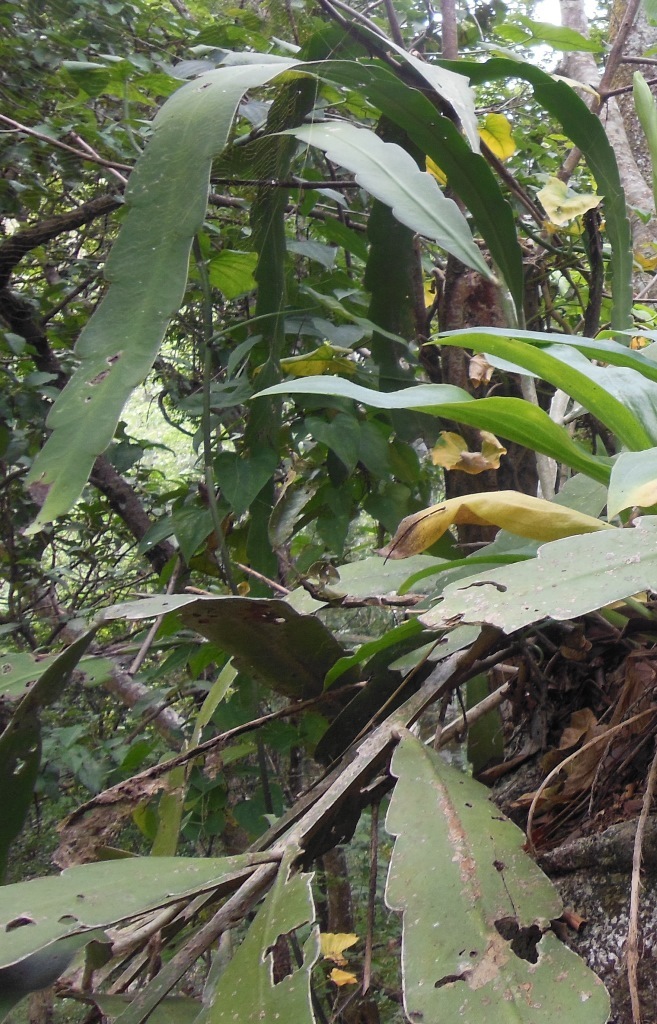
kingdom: Plantae
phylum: Tracheophyta
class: Magnoliopsida
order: Caryophyllales
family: Cactaceae
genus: Epiphyllum
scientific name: Epiphyllum oxypetalum
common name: Dutchman's pipe cactus
